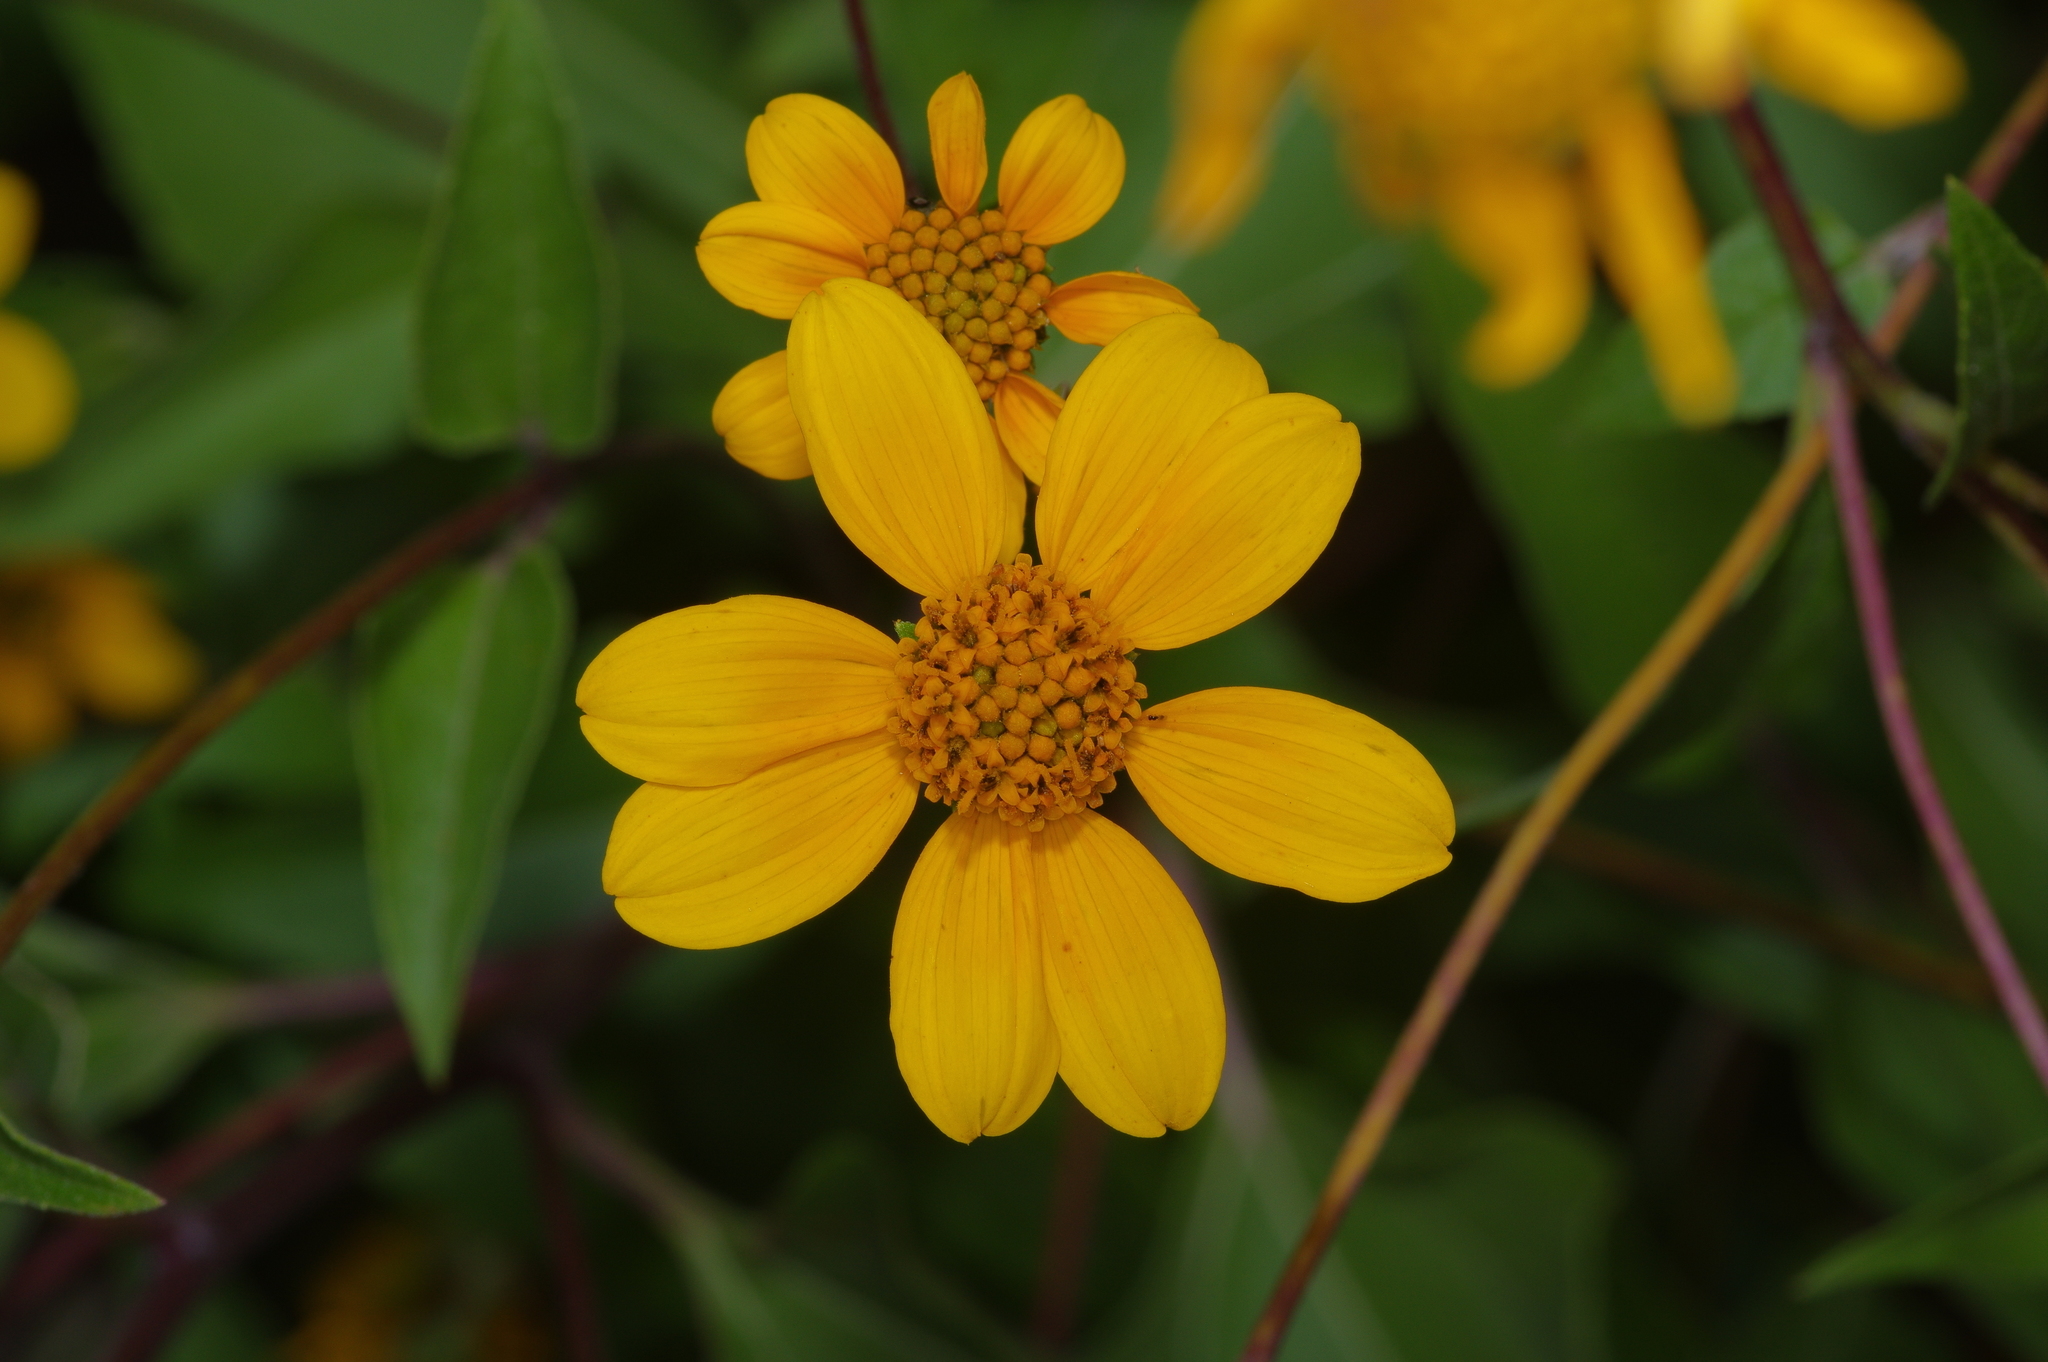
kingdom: Plantae
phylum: Tracheophyta
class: Magnoliopsida
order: Asterales
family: Asteraceae
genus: Viguiera
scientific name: Viguiera dentata
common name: Toothleaf
